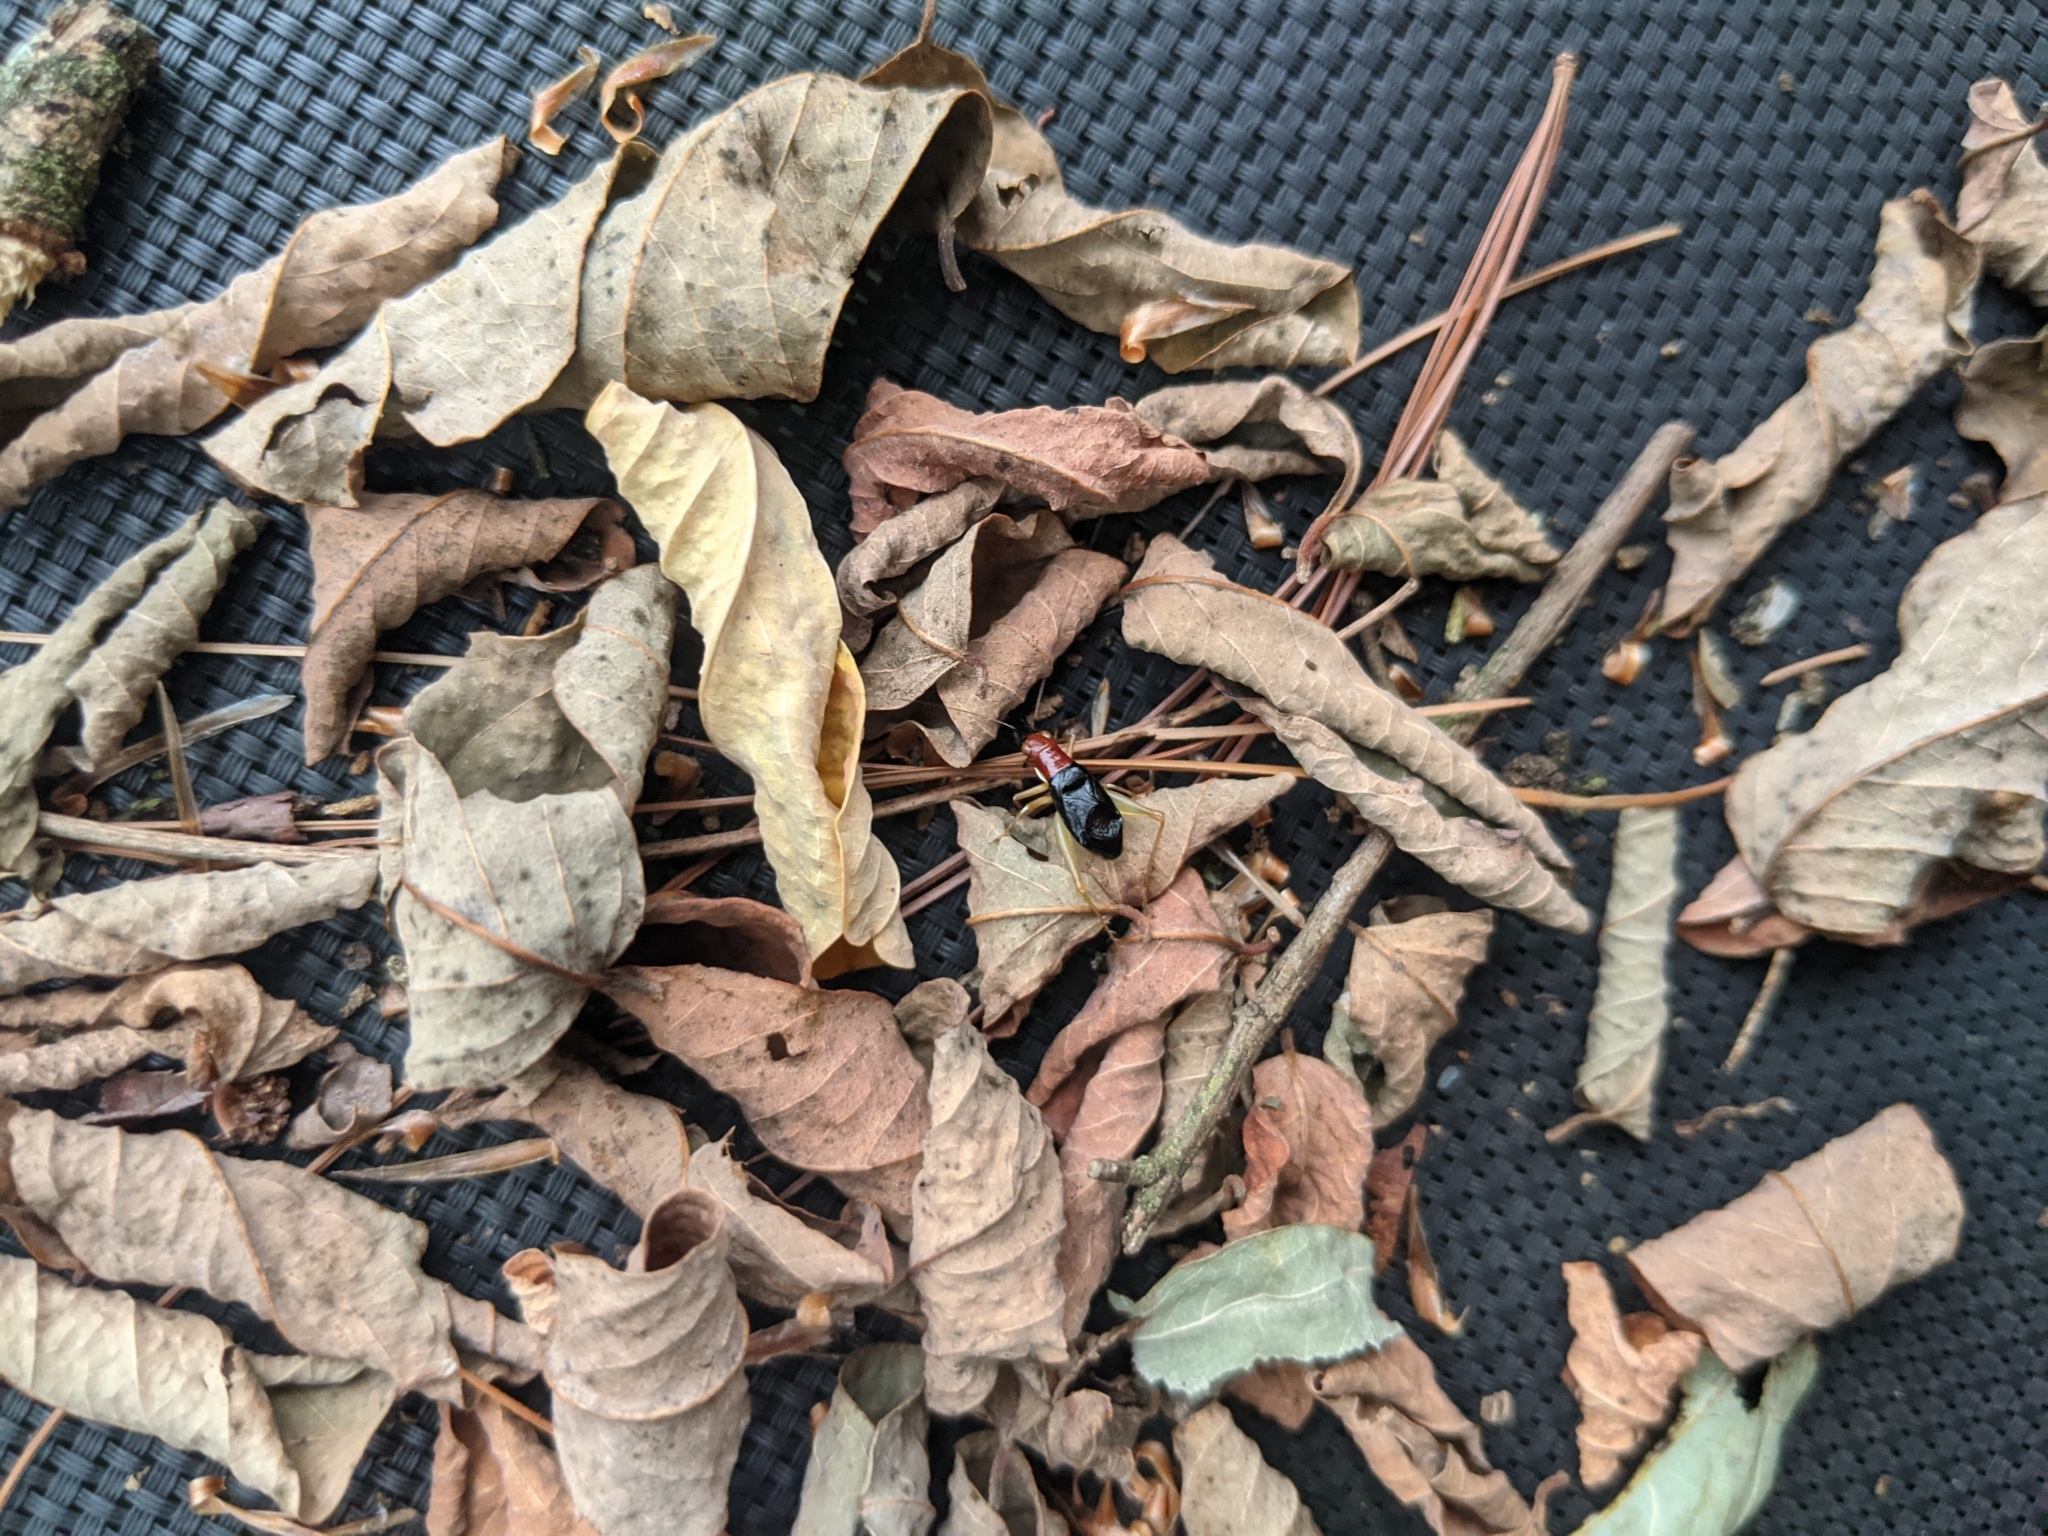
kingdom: Animalia
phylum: Arthropoda
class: Insecta
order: Orthoptera
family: Trigonidiidae
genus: Phyllopalpus
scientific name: Phyllopalpus pulchellus
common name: Handsome trig
